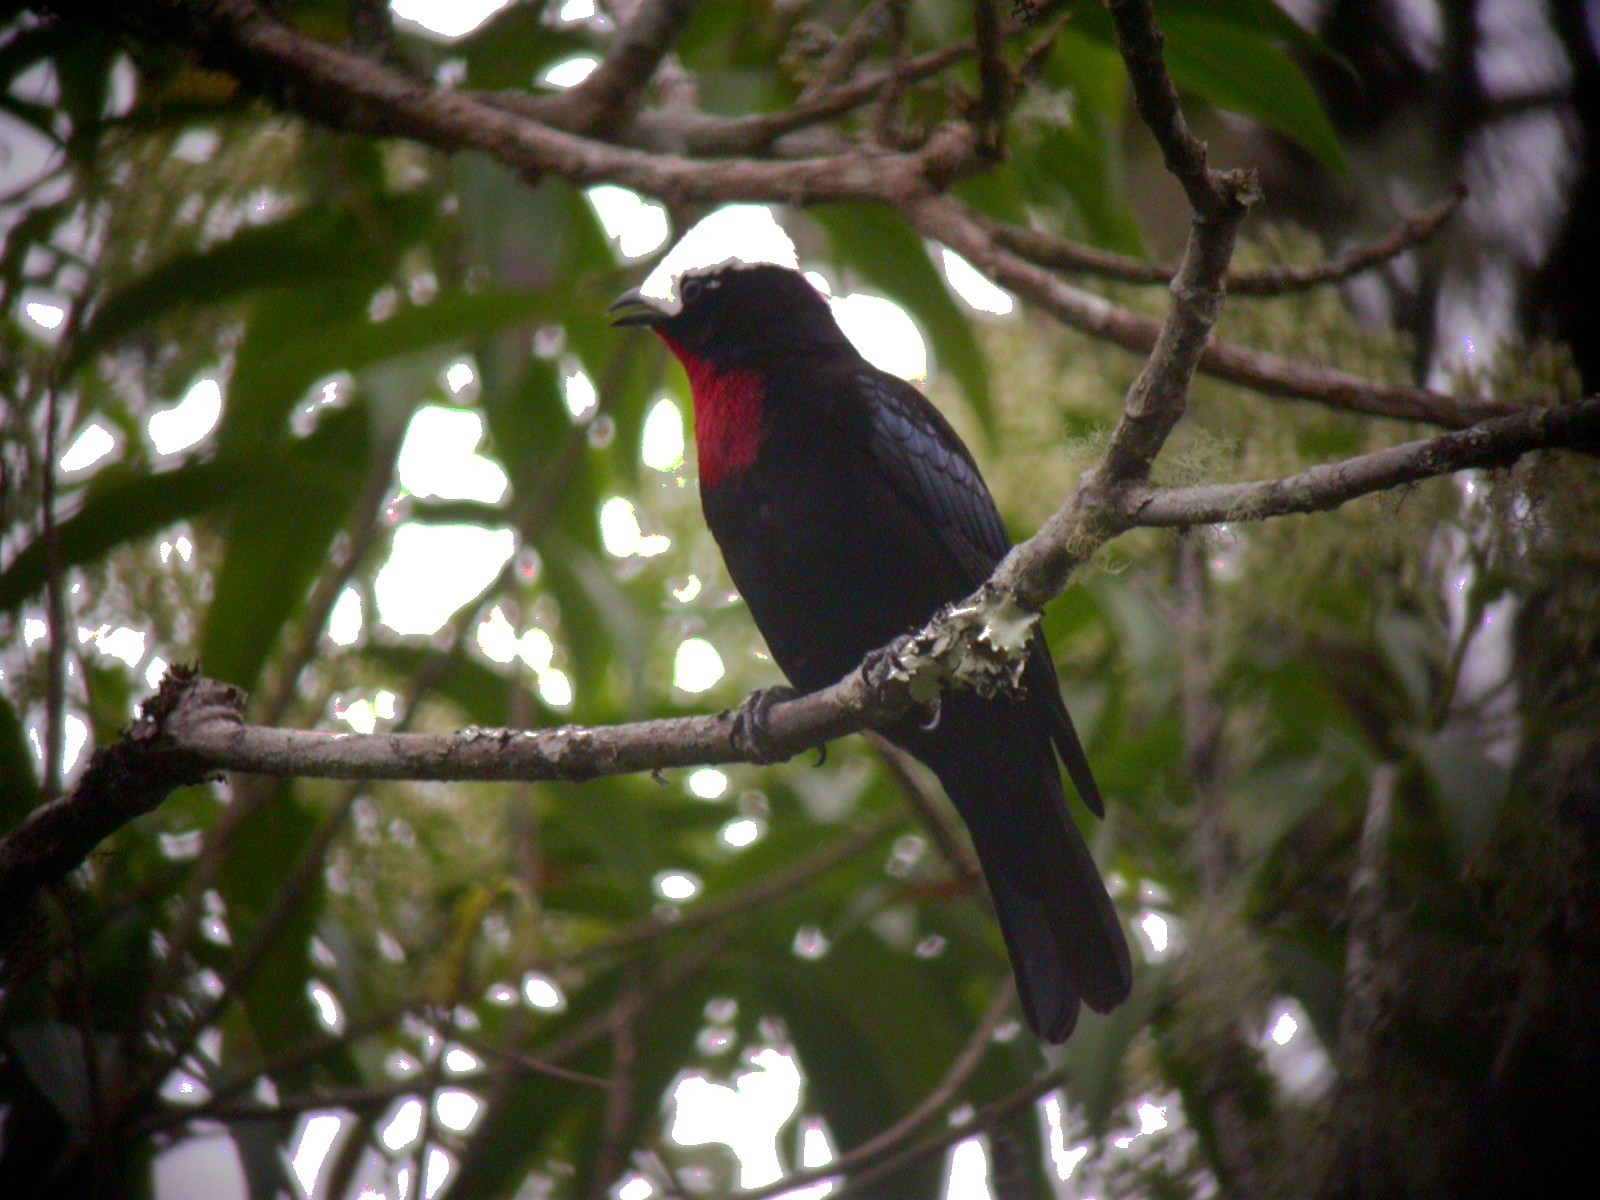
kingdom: Animalia
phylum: Chordata
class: Aves
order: Passeriformes
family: Thraupidae
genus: Sericossypha
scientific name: Sericossypha albocristata
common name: White-capped tanager
